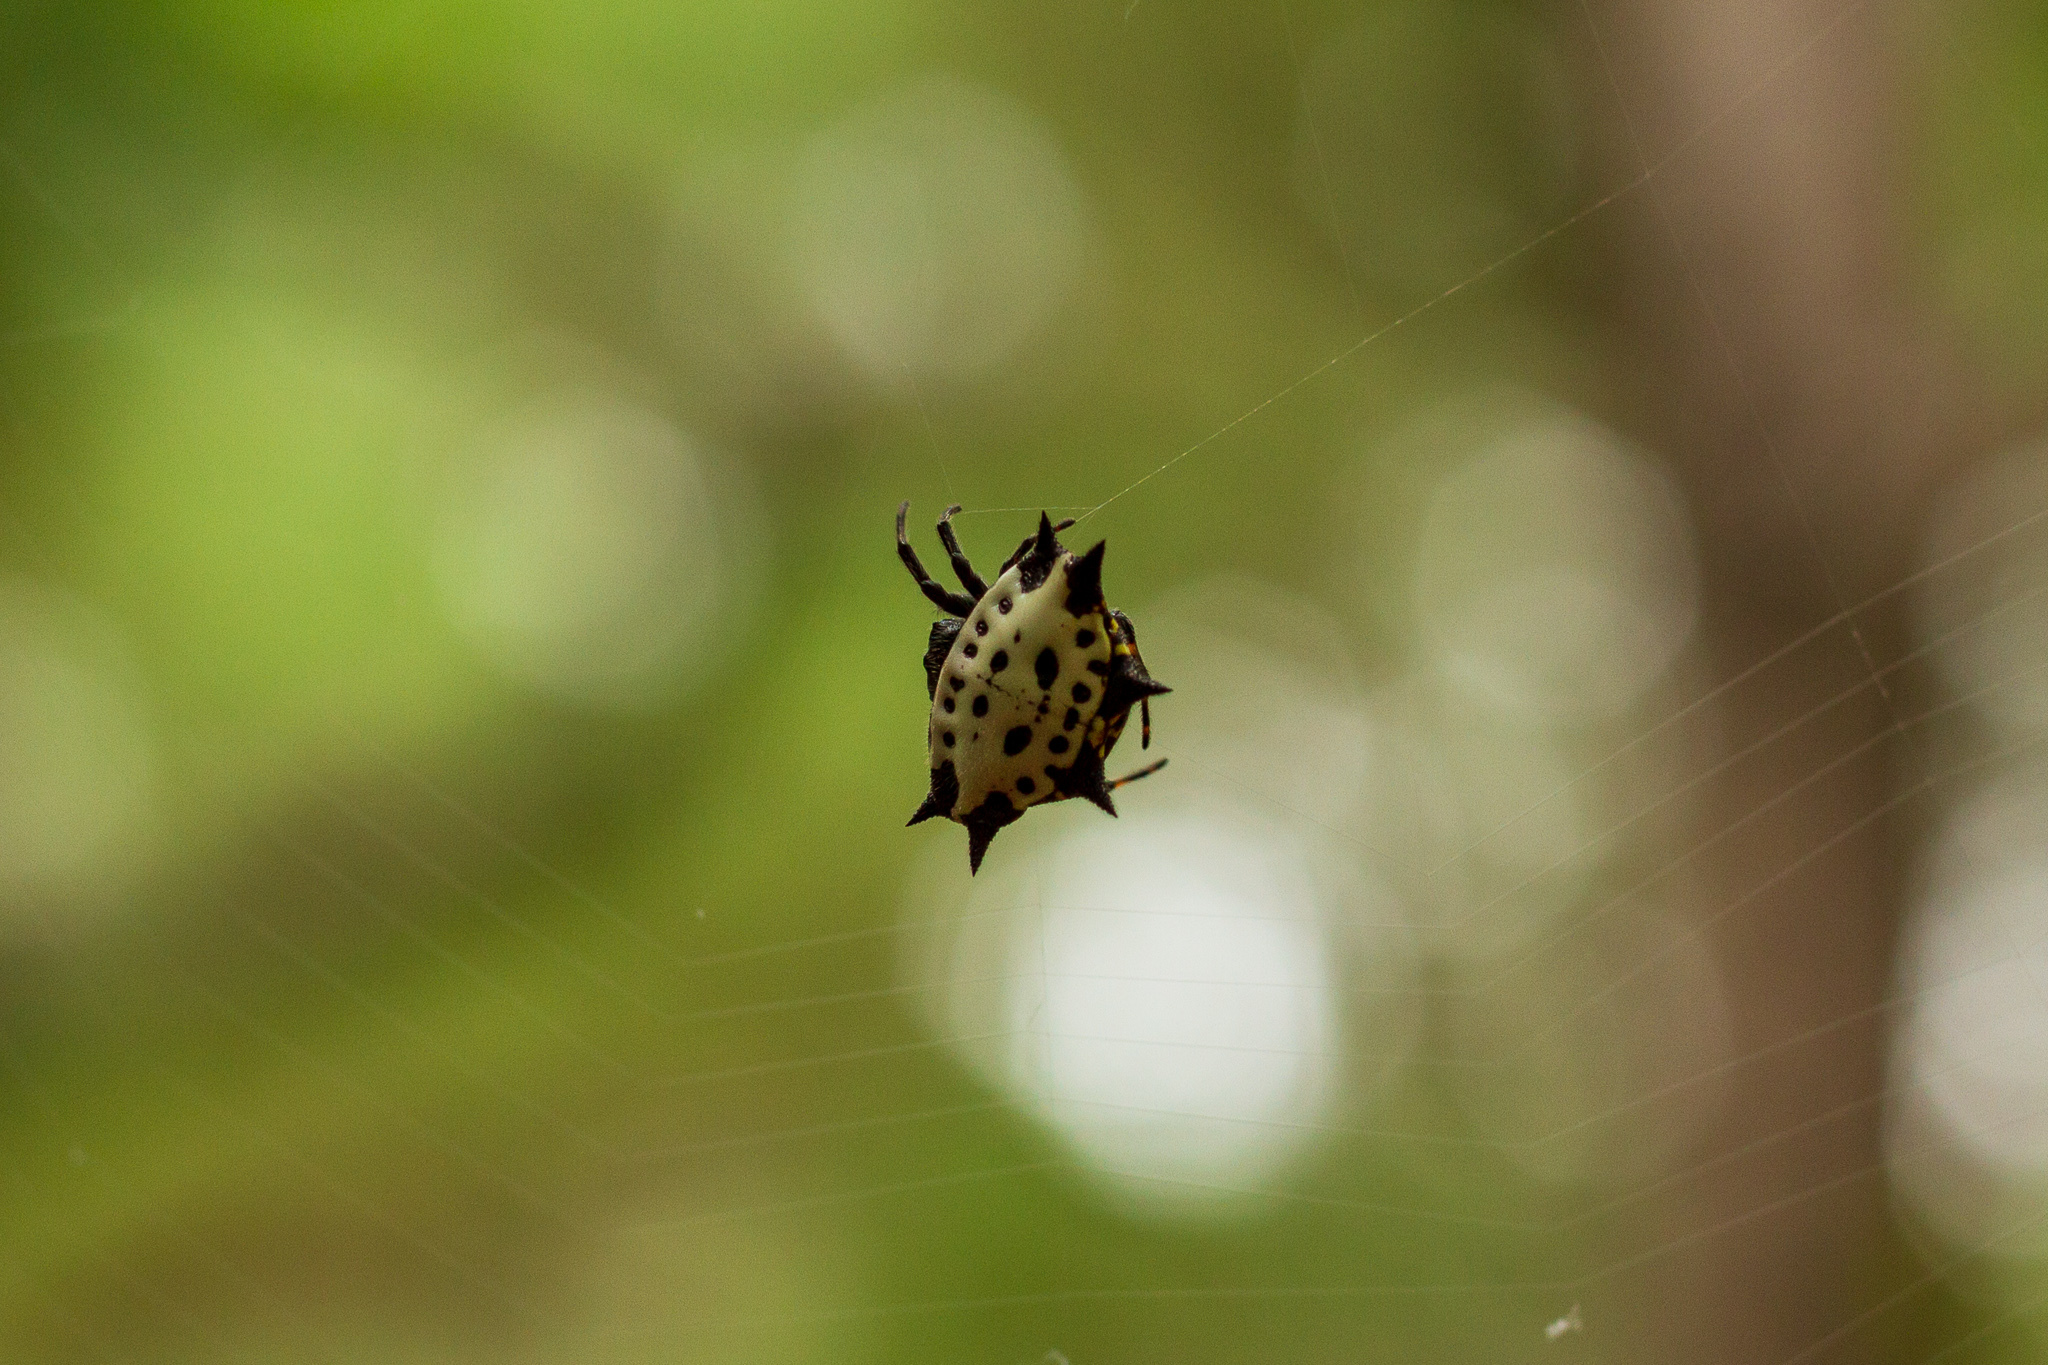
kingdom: Animalia
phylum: Arthropoda
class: Arachnida
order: Araneae
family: Araneidae
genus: Gasteracantha
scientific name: Gasteracantha cancriformis
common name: Orb weavers
